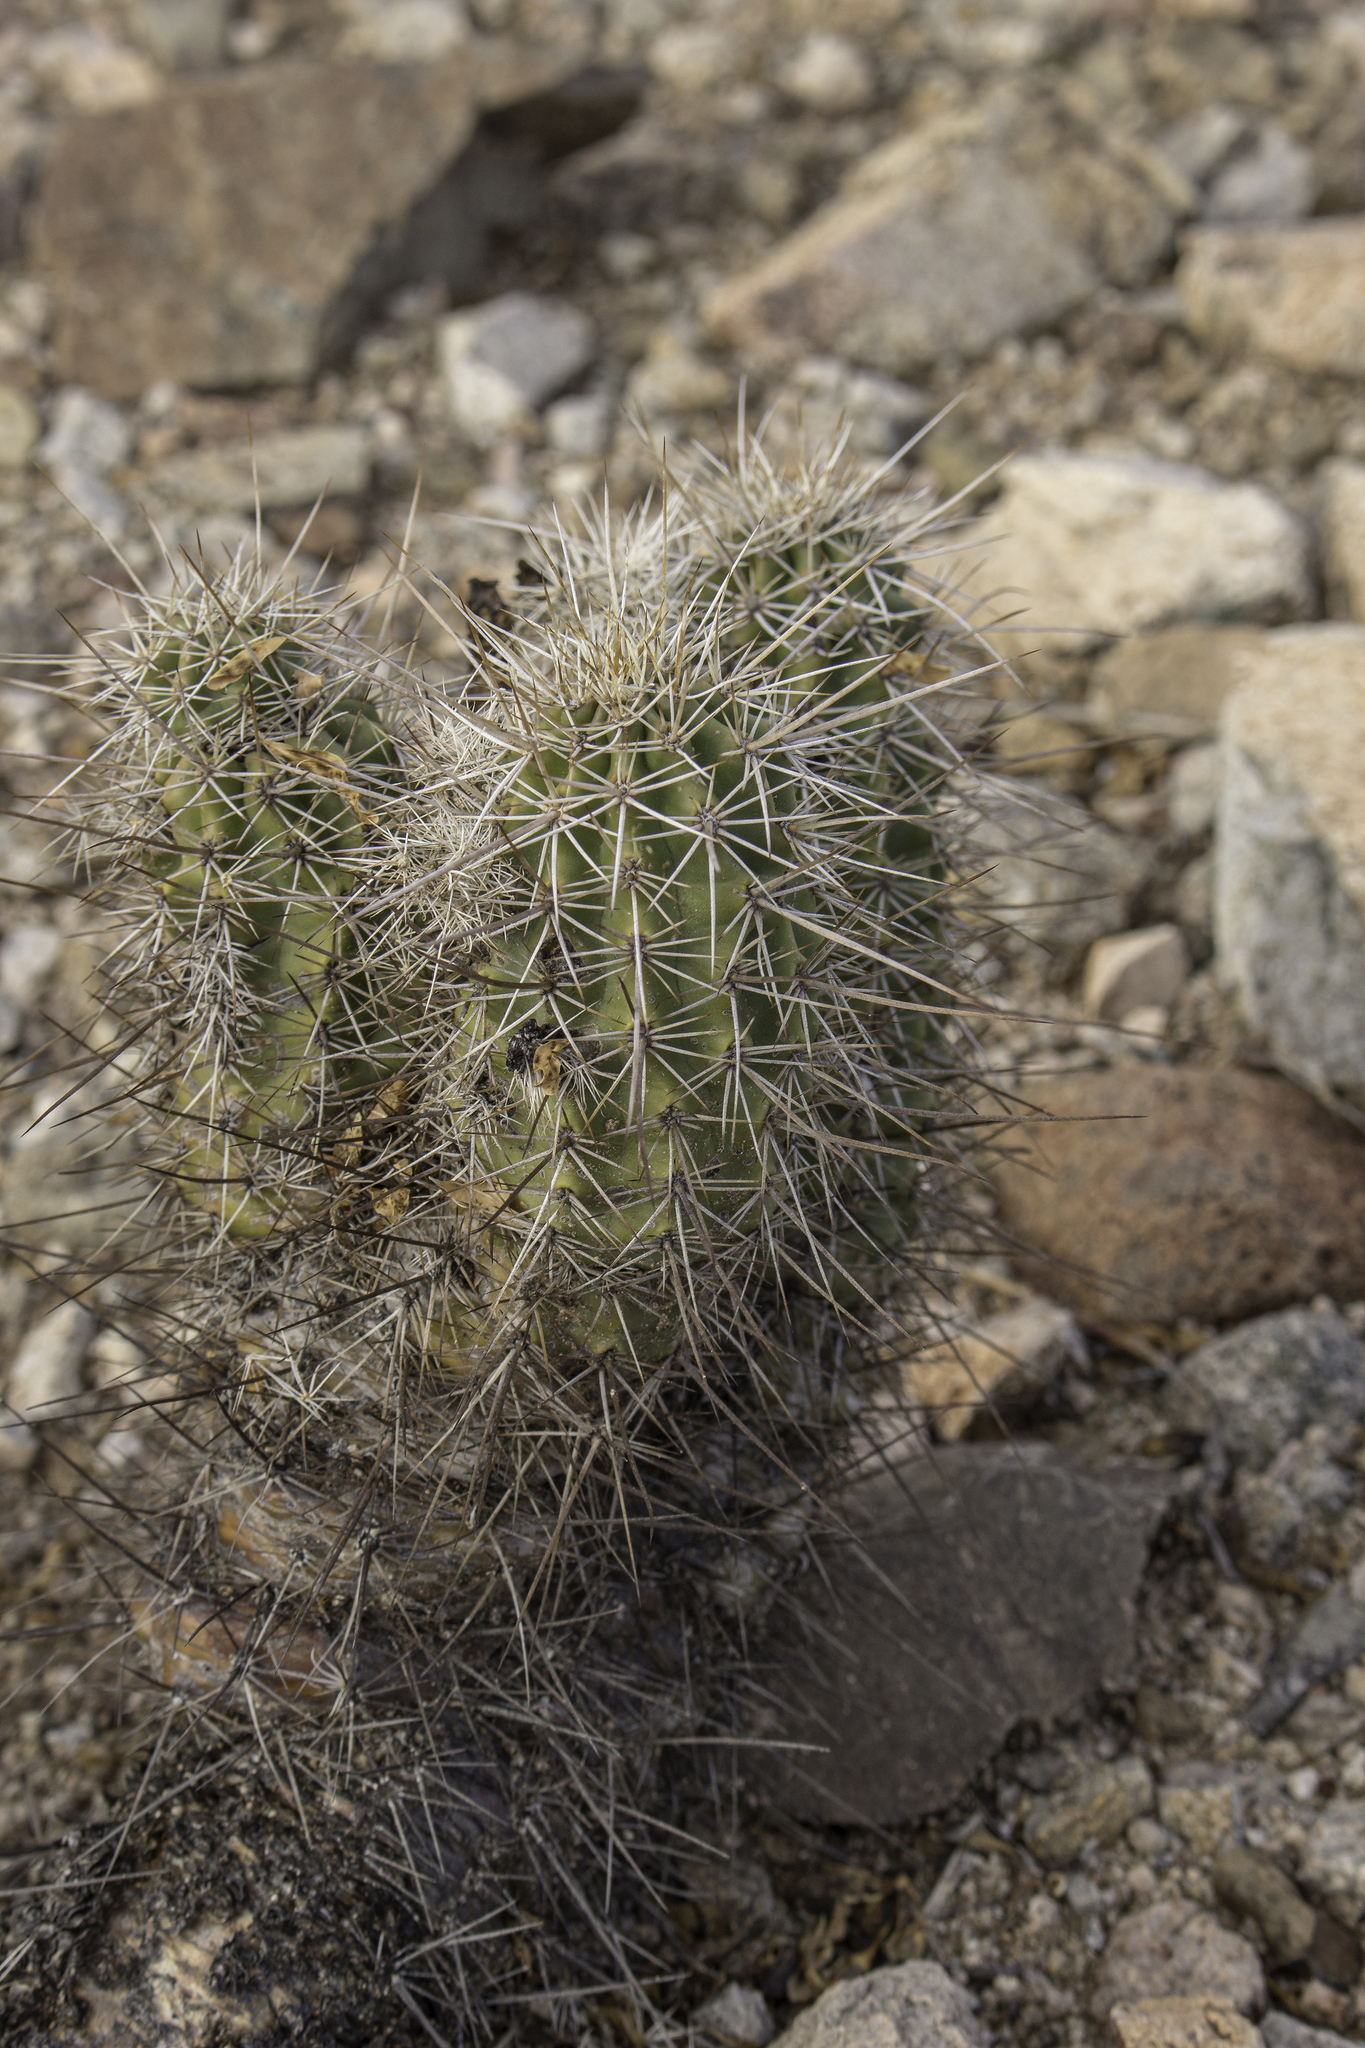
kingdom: Plantae
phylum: Tracheophyta
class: Magnoliopsida
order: Caryophyllales
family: Cactaceae
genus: Echinocereus
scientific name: Echinocereus fasciculatus
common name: Bundle hedgehog
